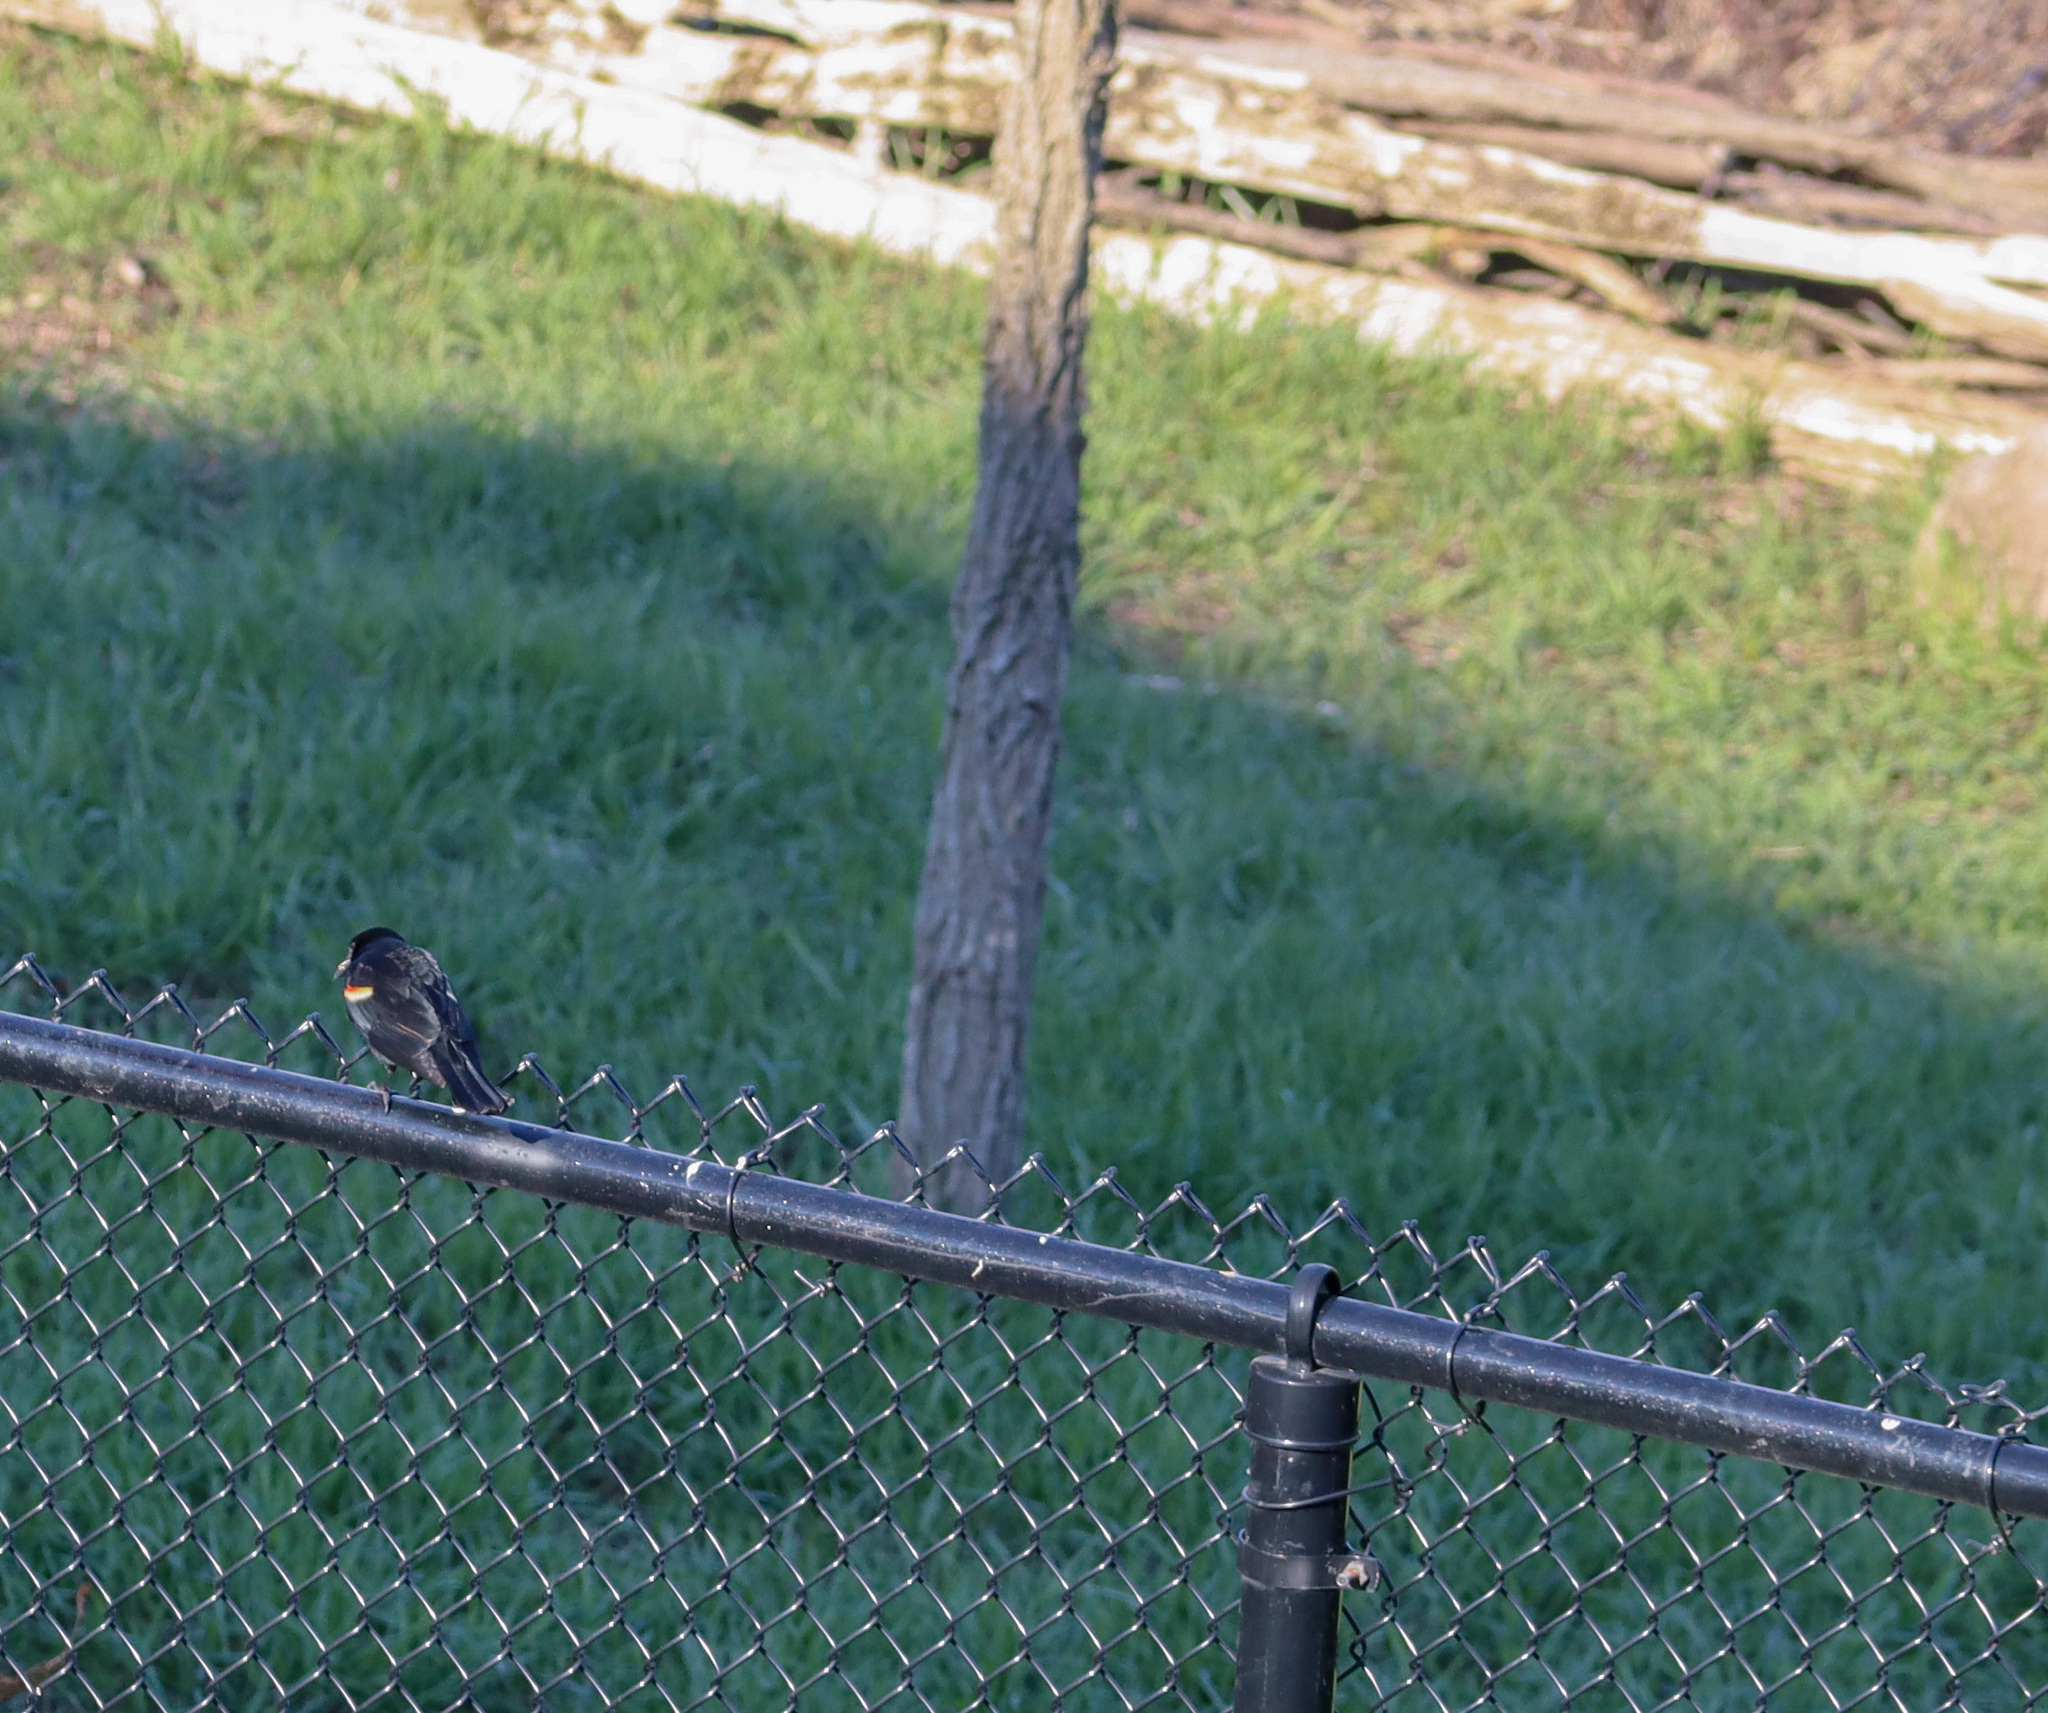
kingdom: Animalia
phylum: Chordata
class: Aves
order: Passeriformes
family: Icteridae
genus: Agelaius
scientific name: Agelaius phoeniceus
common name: Red-winged blackbird
